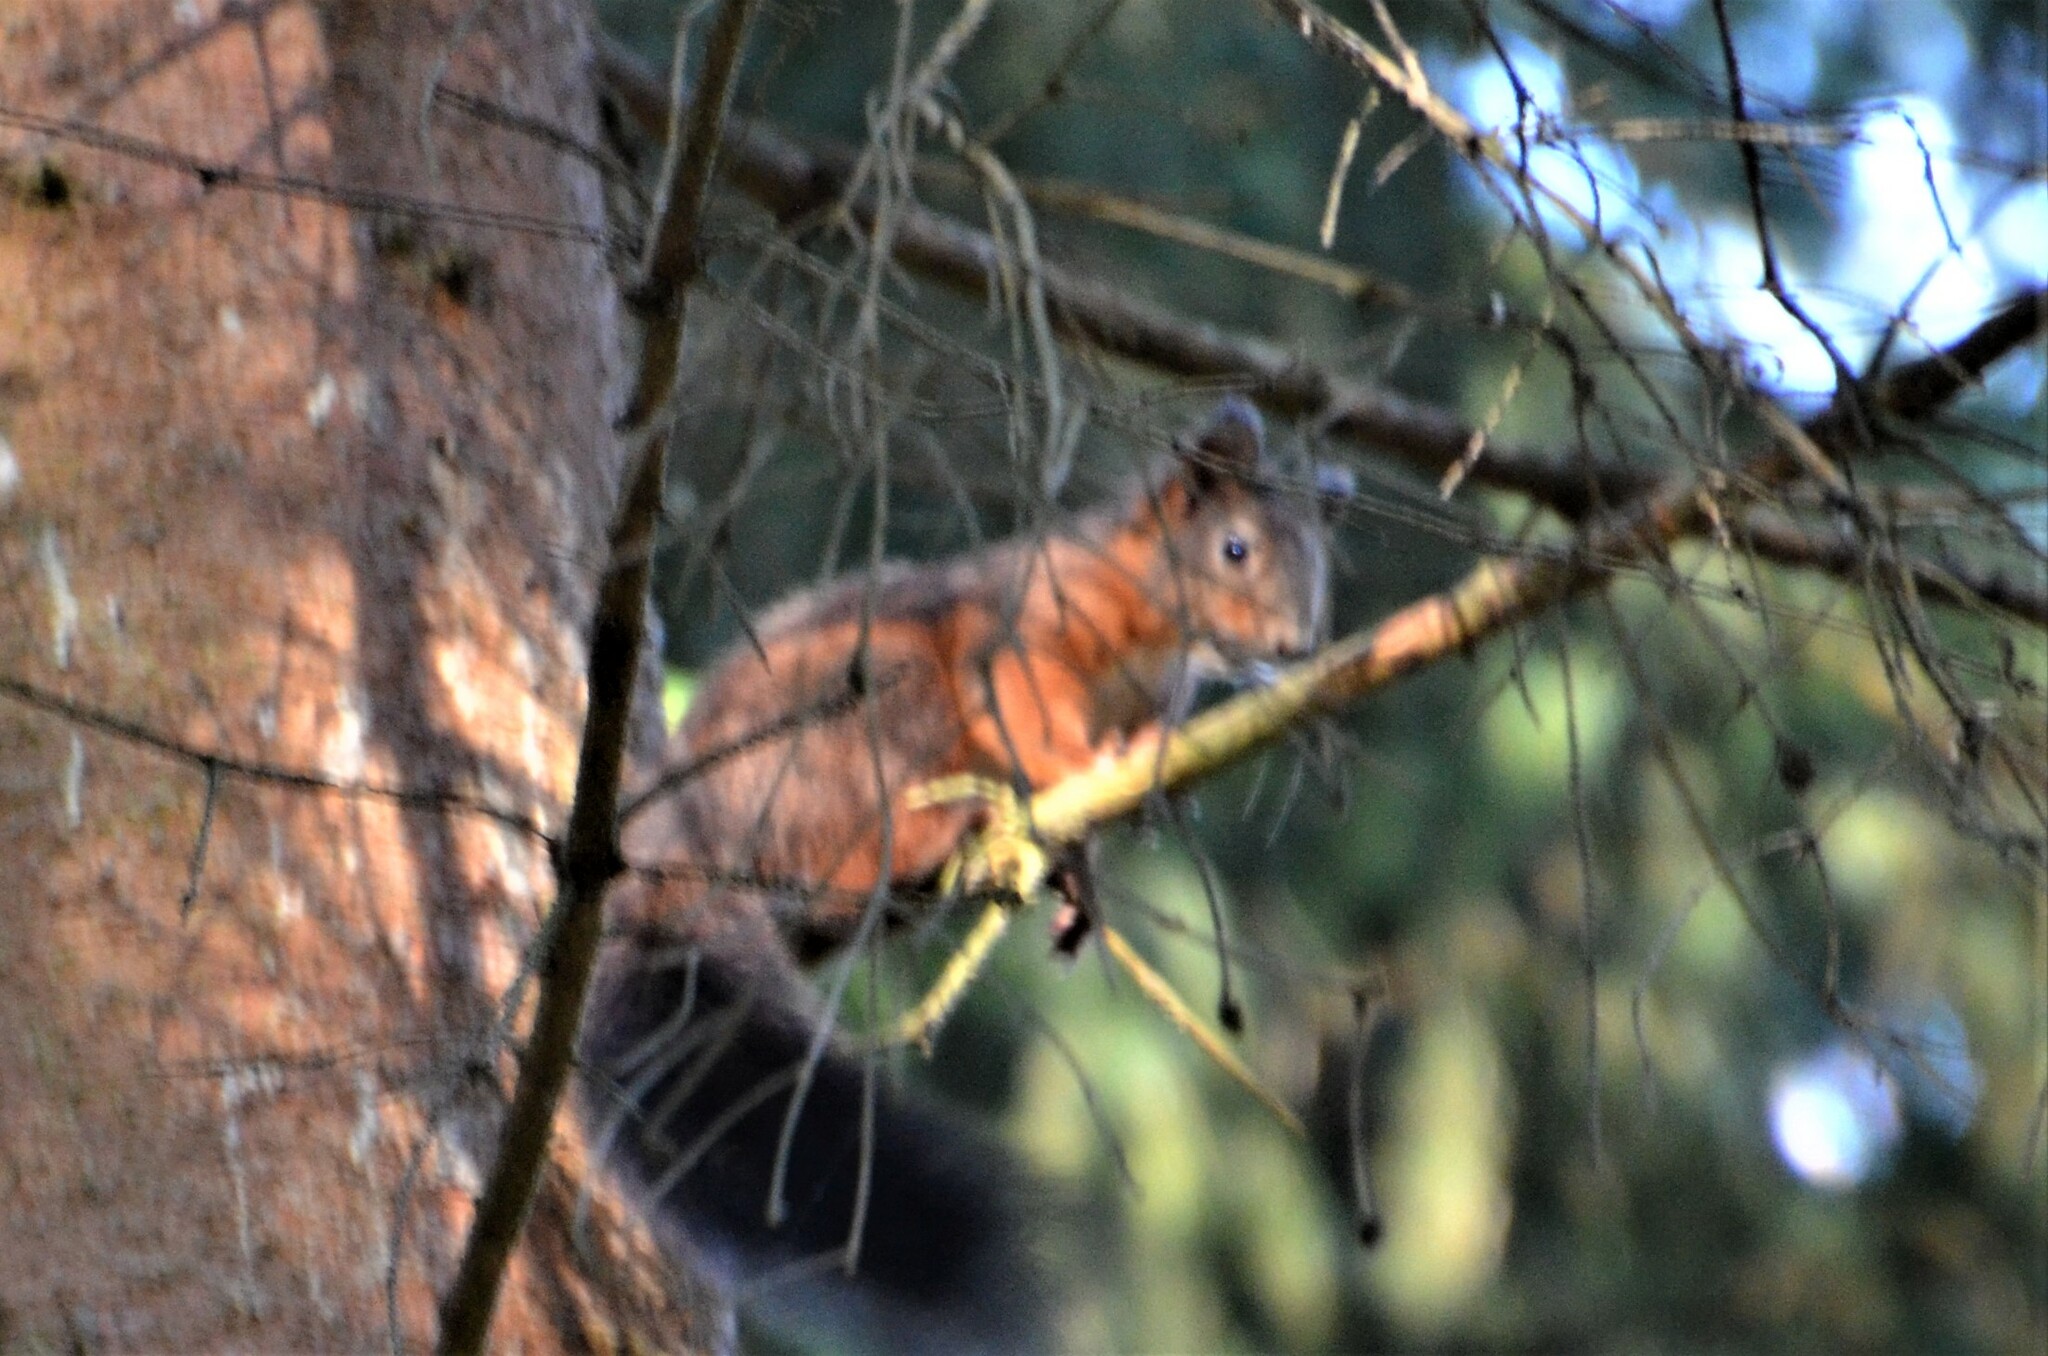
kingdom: Animalia
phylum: Chordata
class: Mammalia
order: Rodentia
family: Sciuridae
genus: Sciurus
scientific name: Sciurus vulgaris
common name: Eurasian red squirrel
